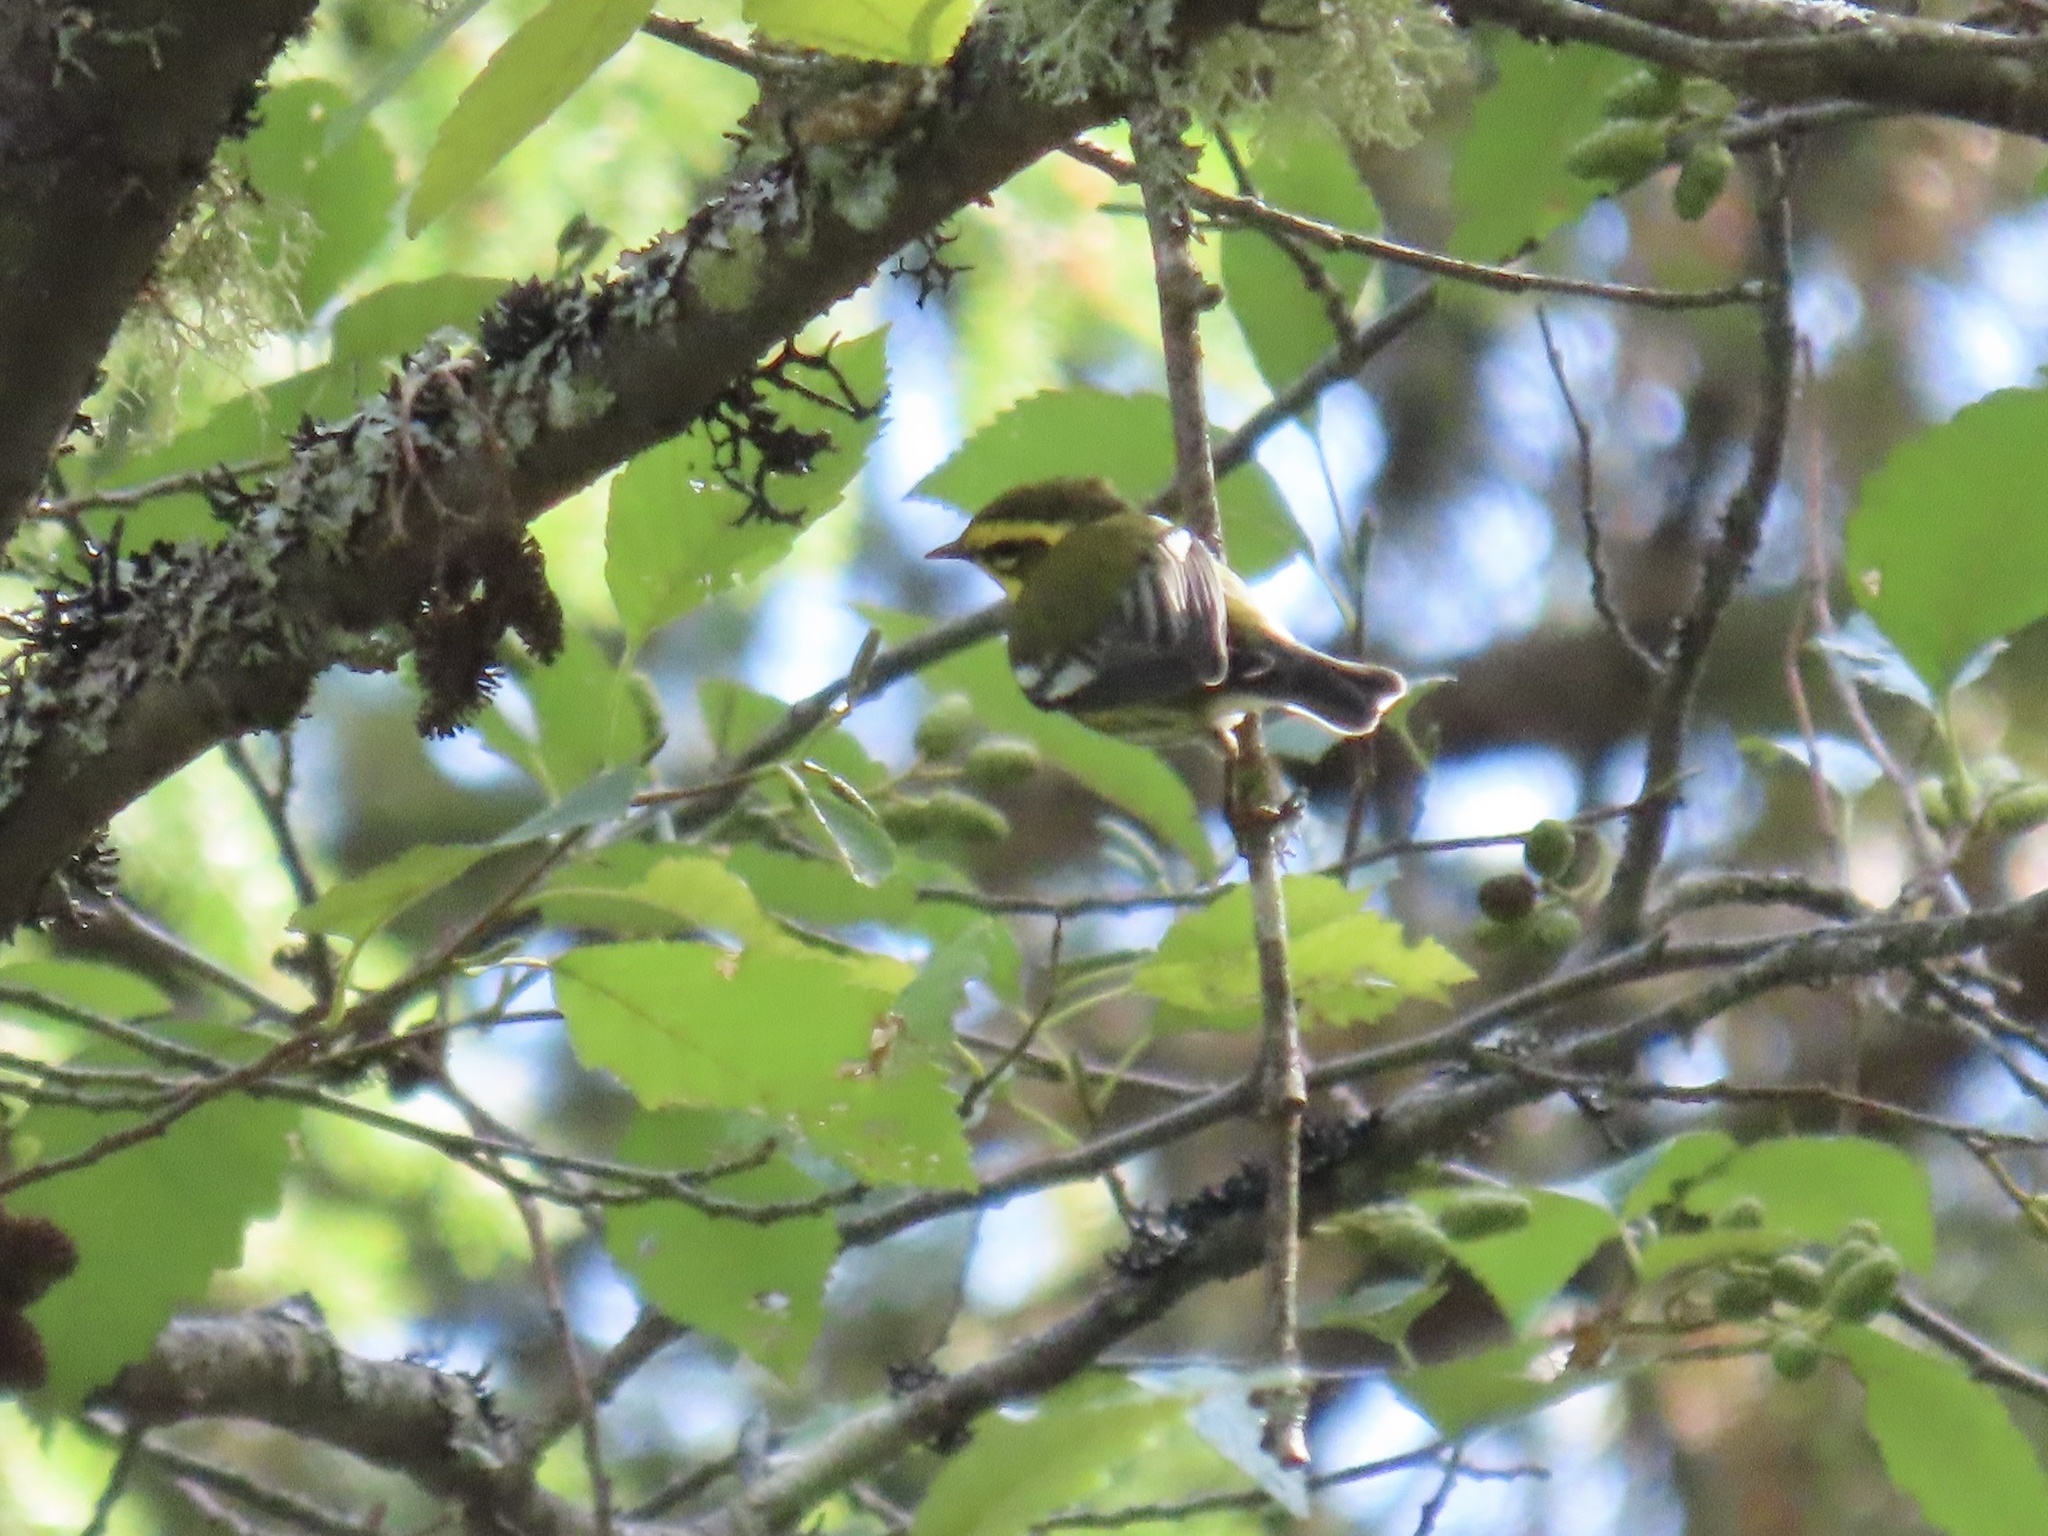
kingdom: Animalia
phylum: Chordata
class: Aves
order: Passeriformes
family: Parulidae
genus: Setophaga
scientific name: Setophaga townsendi
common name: Townsend's warbler
